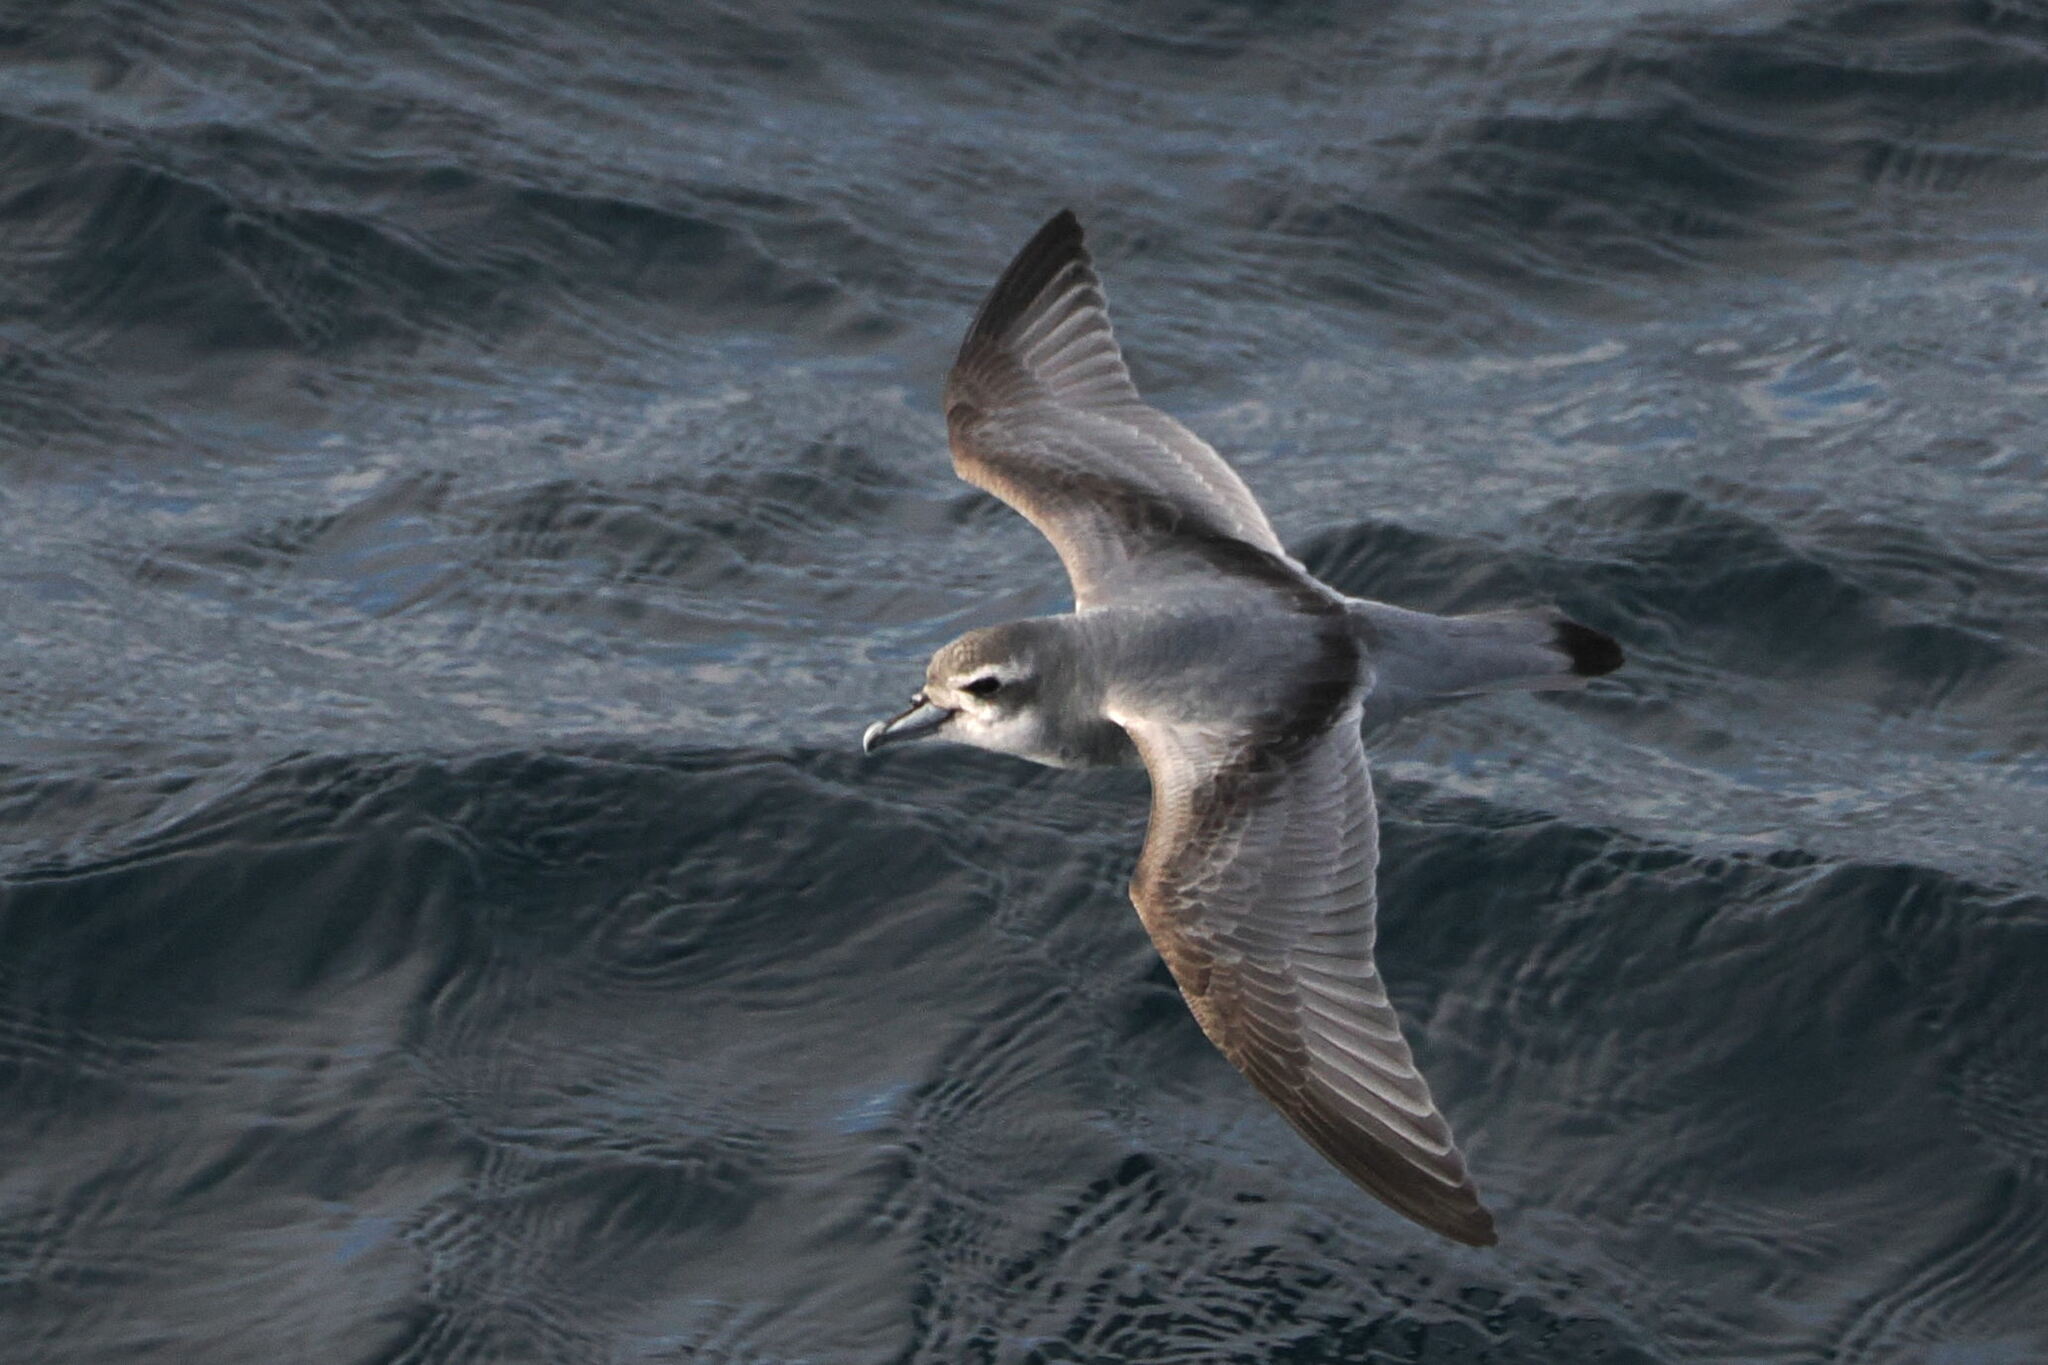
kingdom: Animalia
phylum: Chordata
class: Aves
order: Procellariiformes
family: Procellariidae
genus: Pachyptila
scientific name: Pachyptila desolata
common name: Antarctic prion
